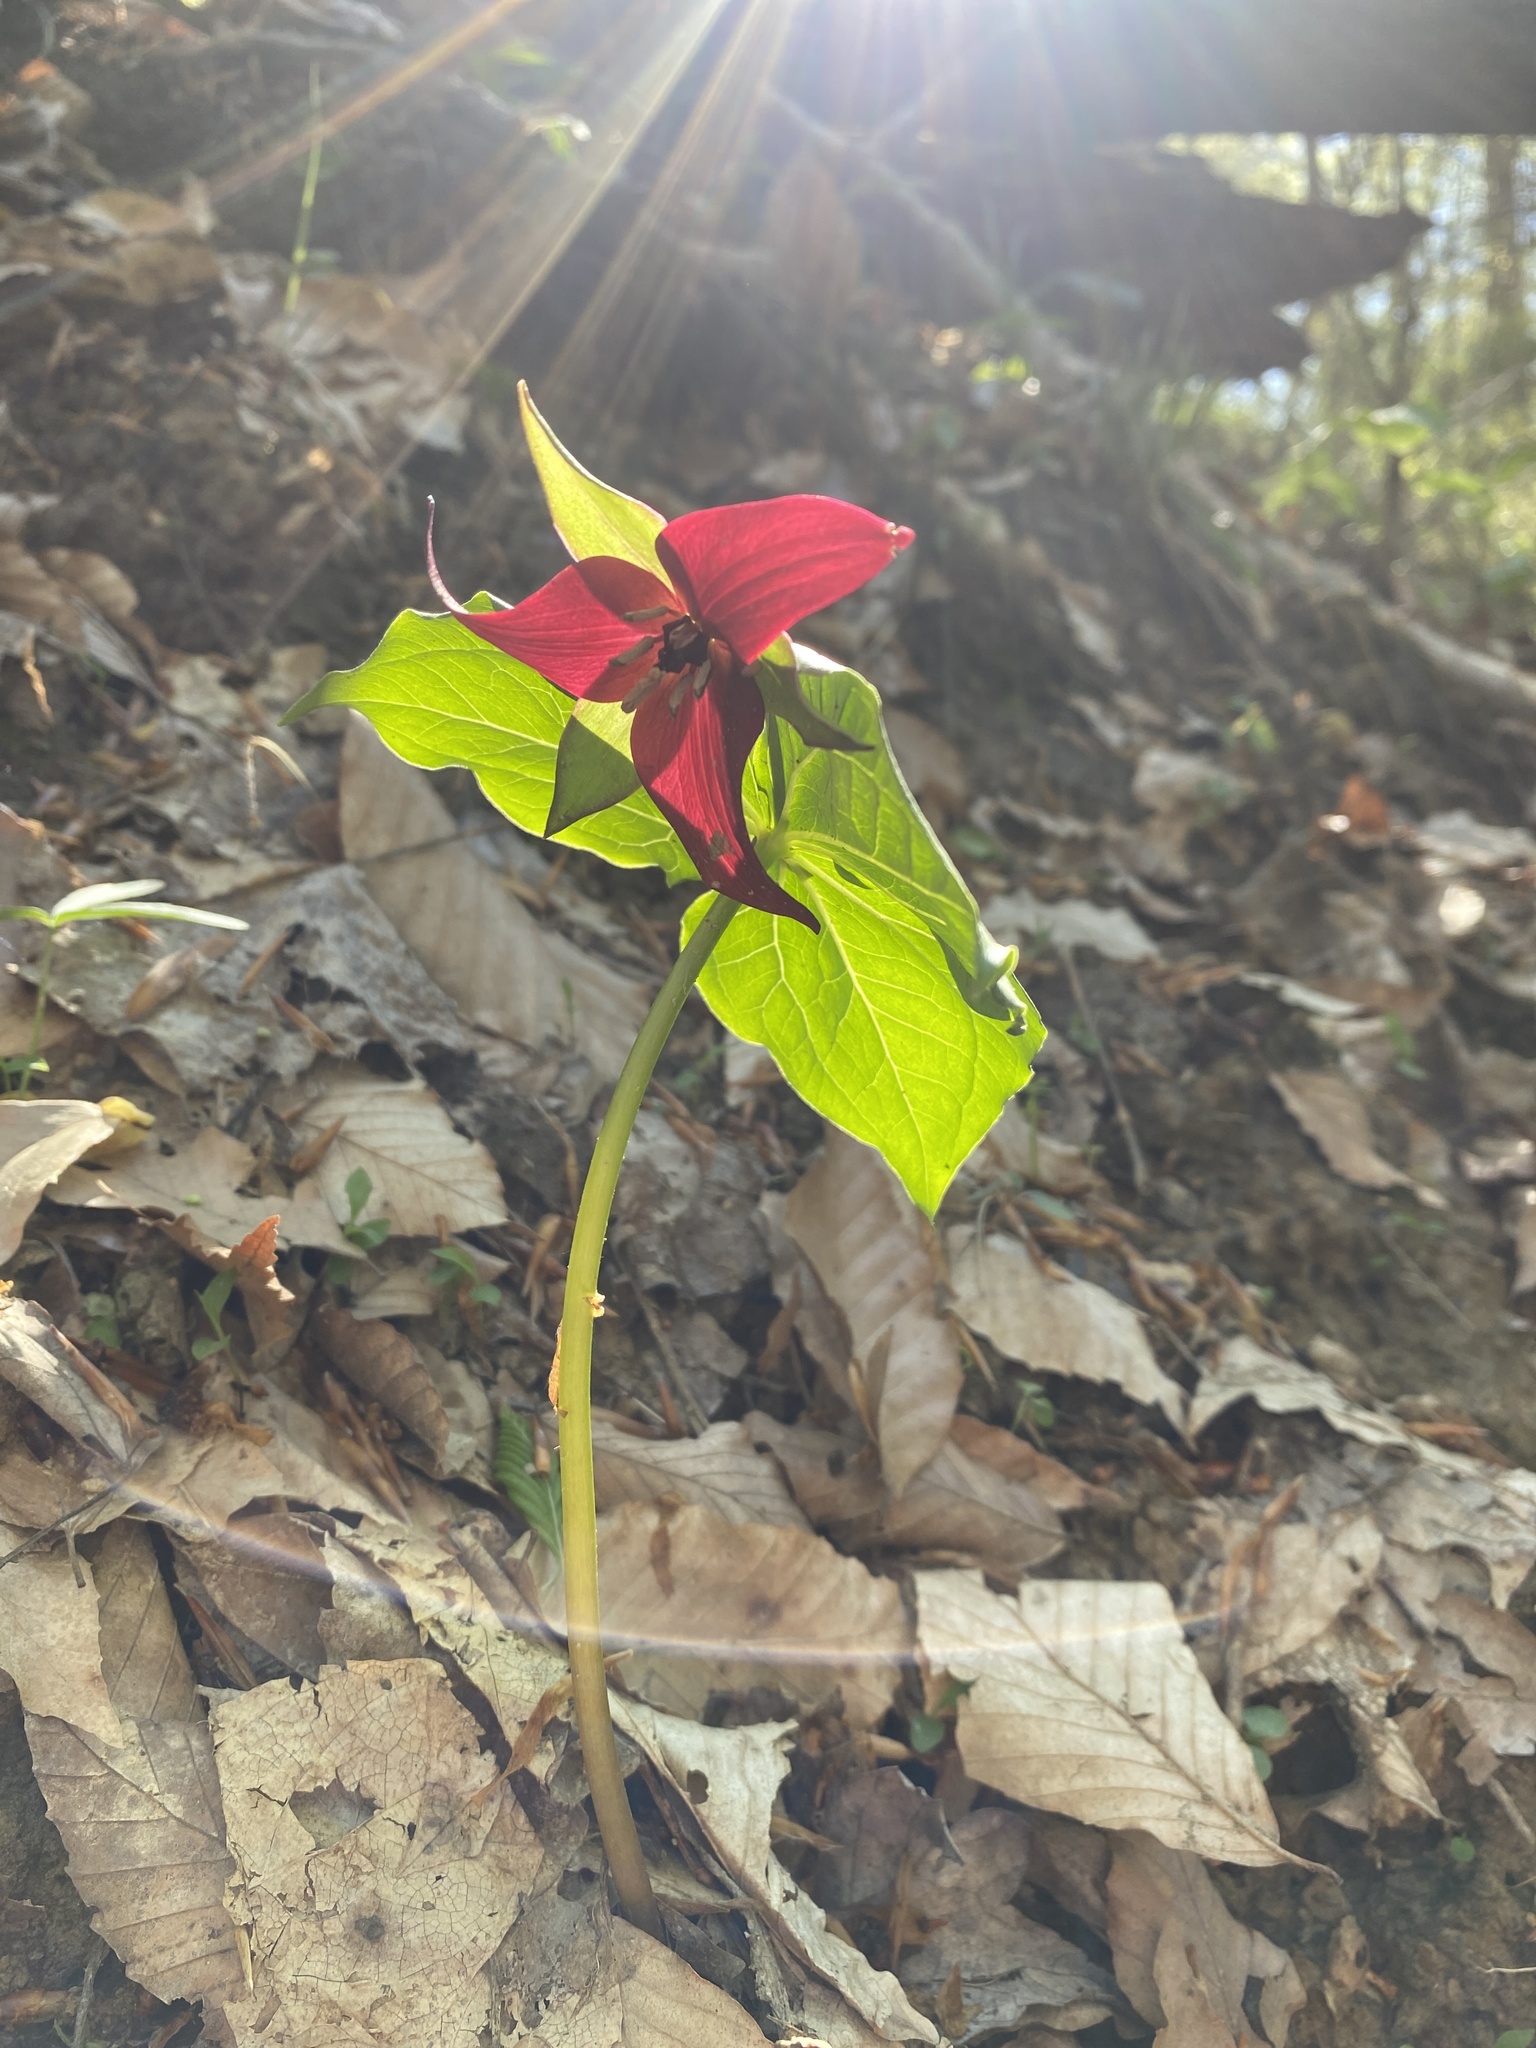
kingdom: Plantae
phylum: Tracheophyta
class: Liliopsida
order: Liliales
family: Melanthiaceae
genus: Trillium
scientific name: Trillium erectum
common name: Purple trillium
